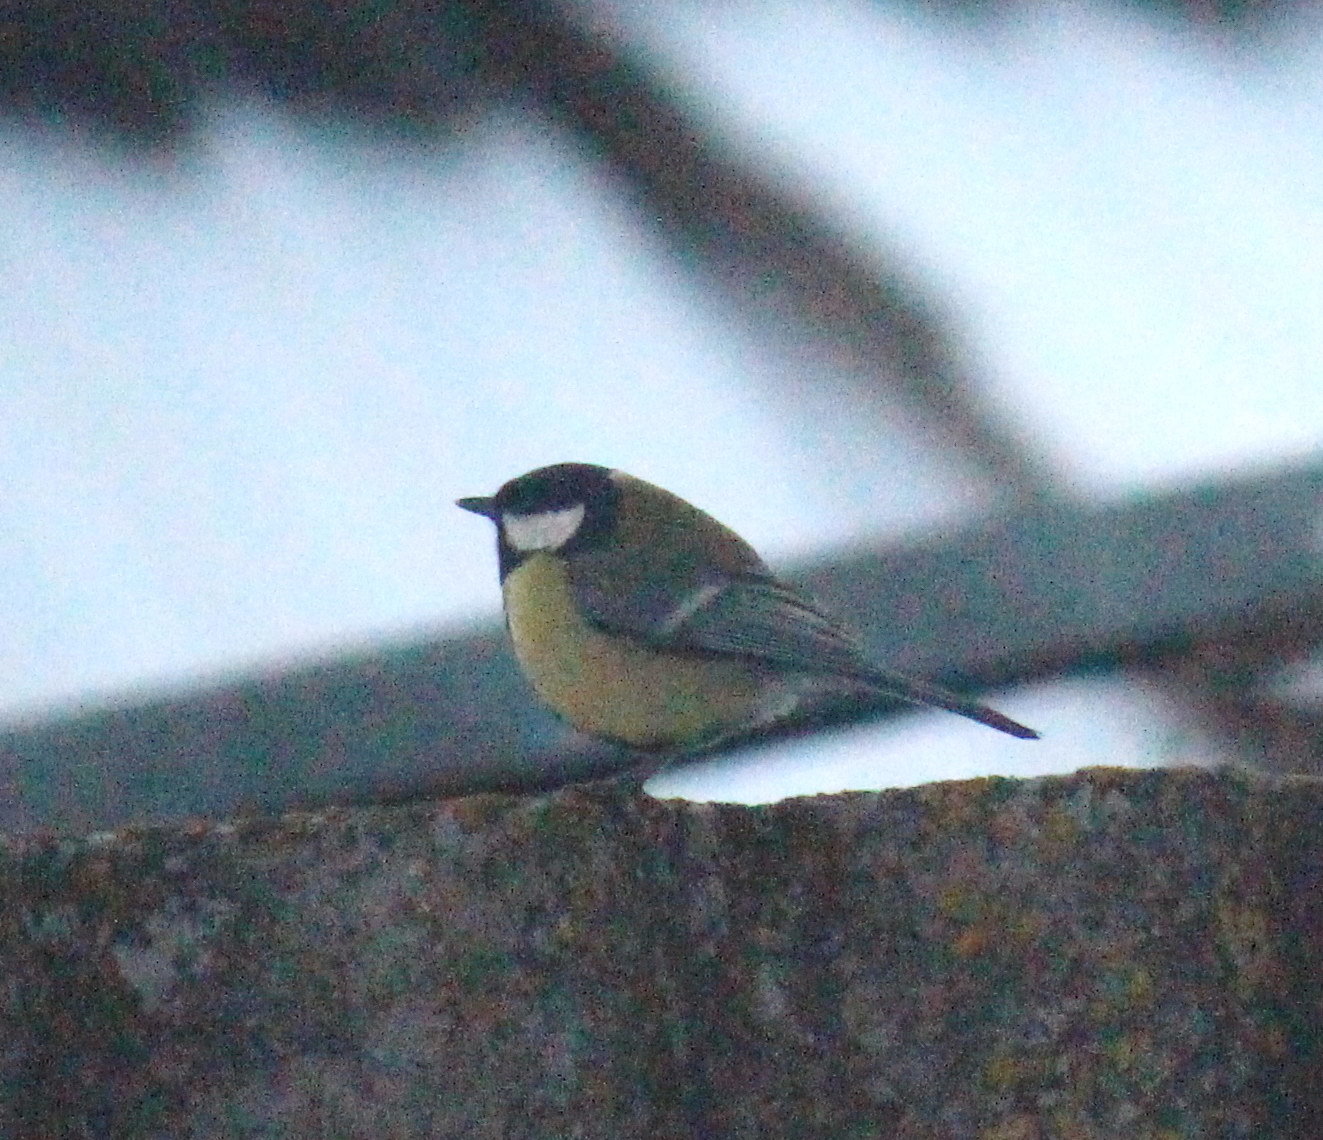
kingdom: Animalia
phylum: Chordata
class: Aves
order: Passeriformes
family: Paridae
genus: Parus
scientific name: Parus major
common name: Great tit
